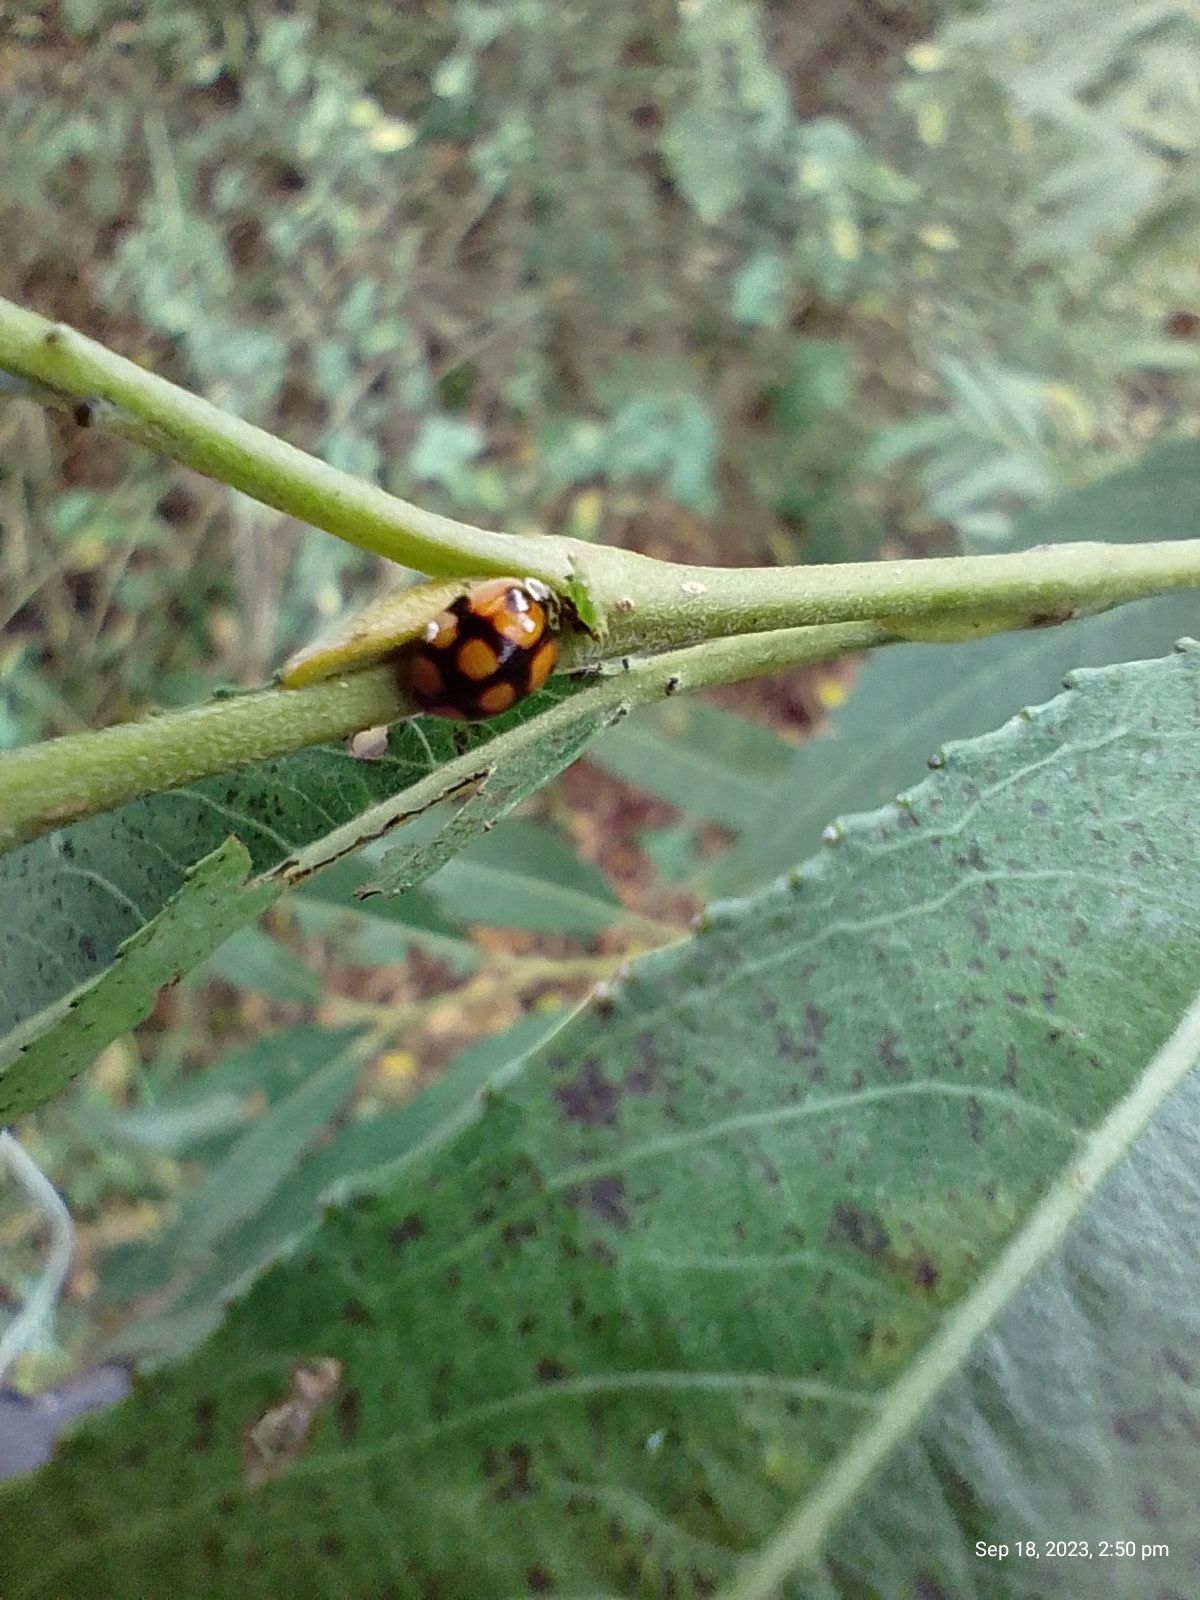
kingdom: Animalia
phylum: Arthropoda
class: Insecta
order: Coleoptera
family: Coccinellidae
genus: Adalia
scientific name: Adalia decempunctata
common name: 10-spot ladybird
